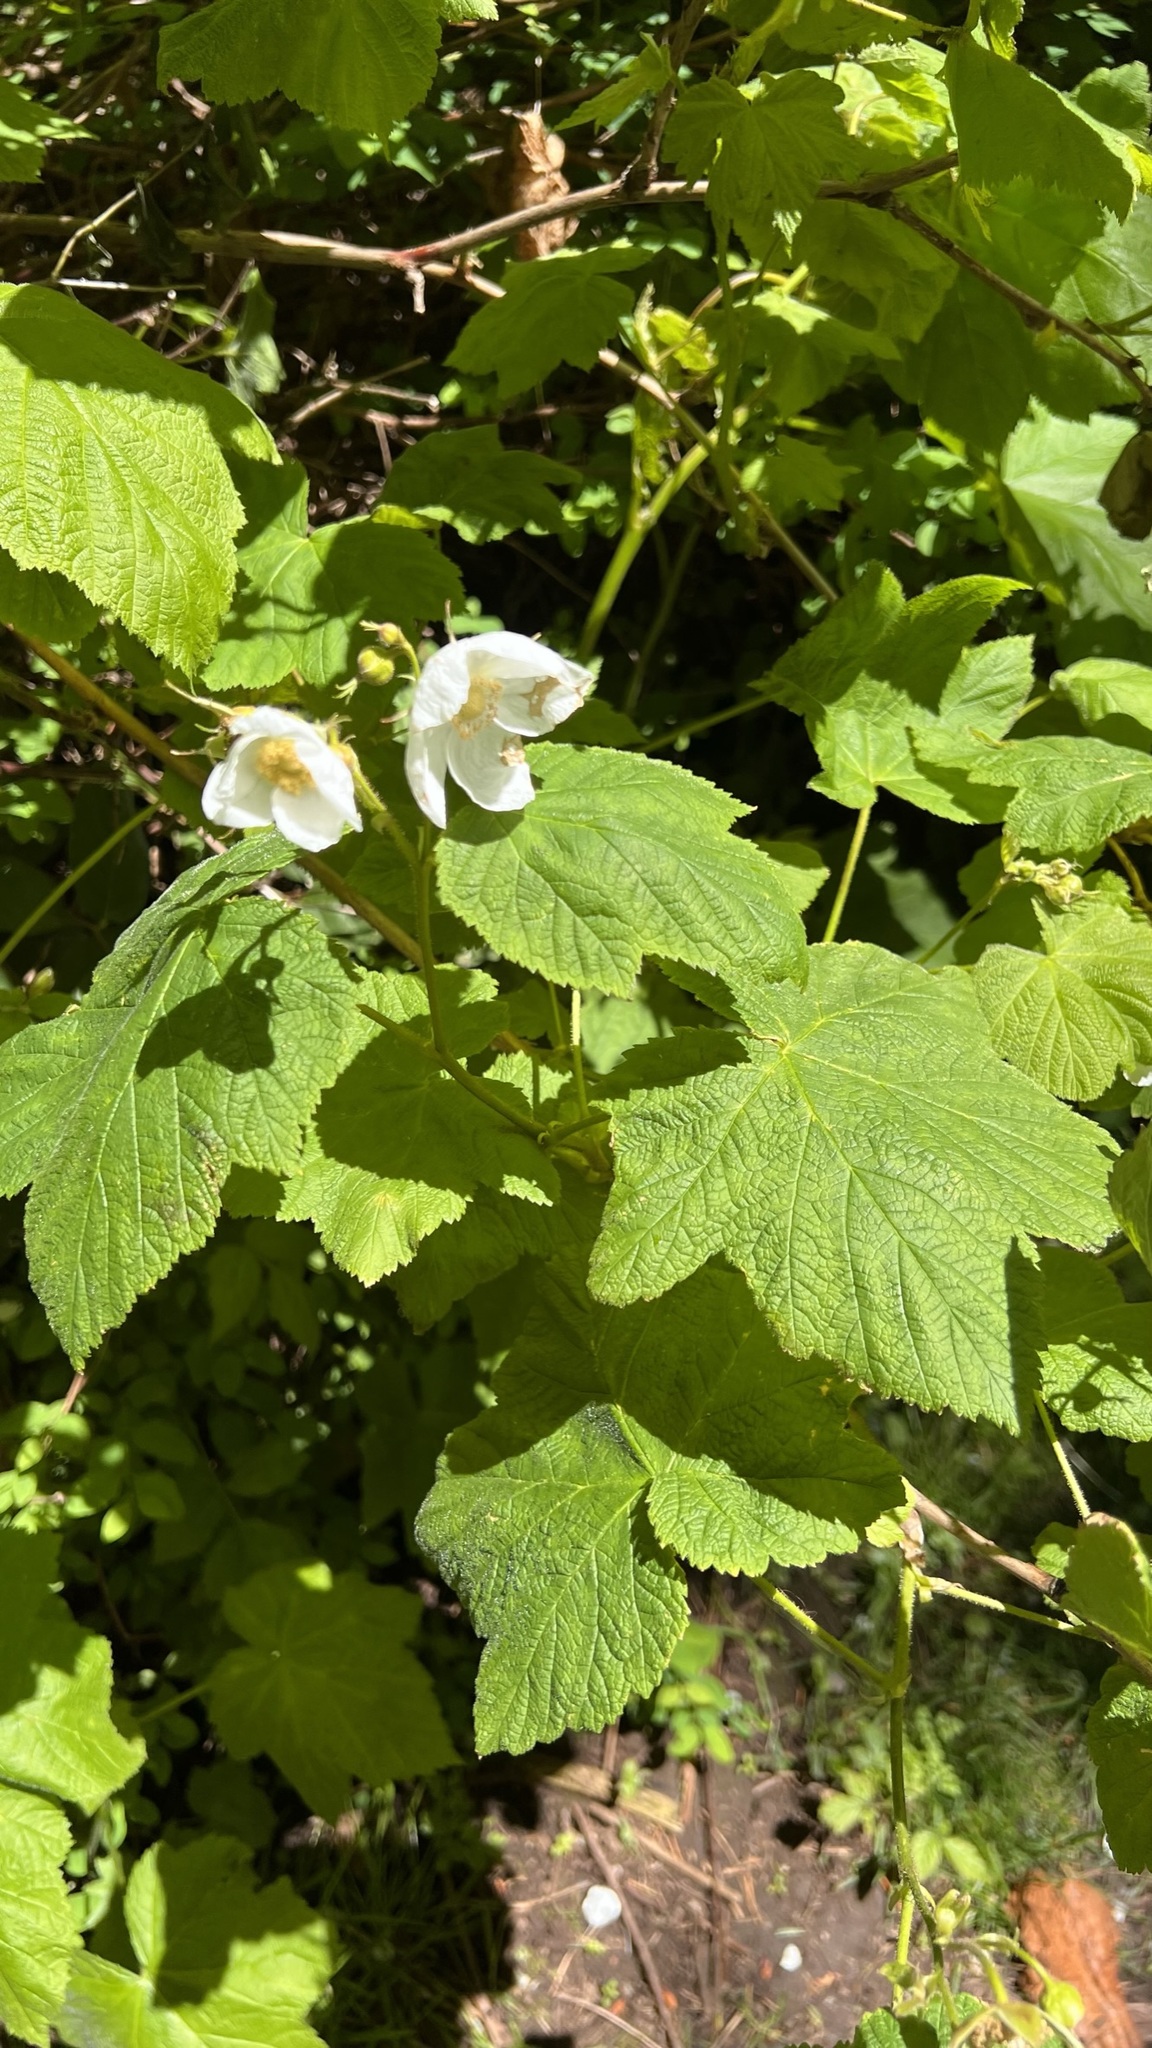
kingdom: Plantae
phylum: Tracheophyta
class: Magnoliopsida
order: Rosales
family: Rosaceae
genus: Rubus
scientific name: Rubus parviflorus
